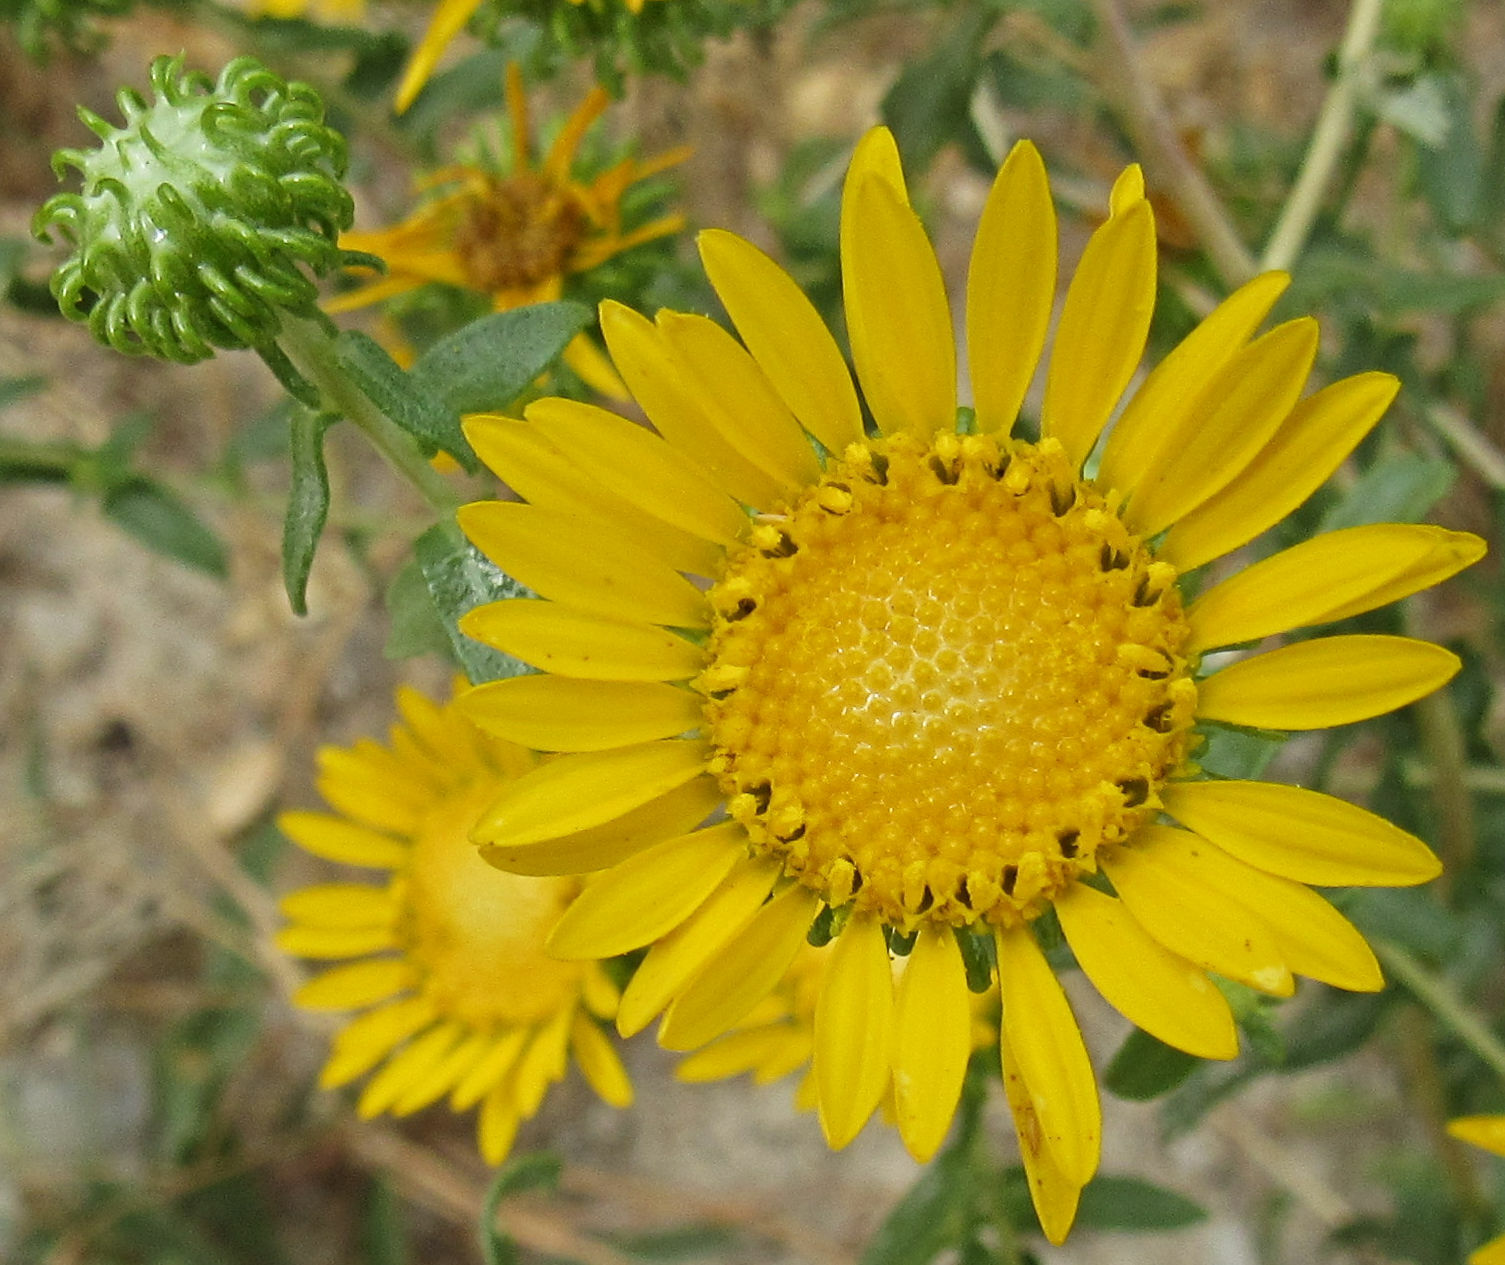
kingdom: Plantae
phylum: Tracheophyta
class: Magnoliopsida
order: Asterales
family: Asteraceae
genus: Grindelia
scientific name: Grindelia squarrosa
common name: Curly-cup gumweed
